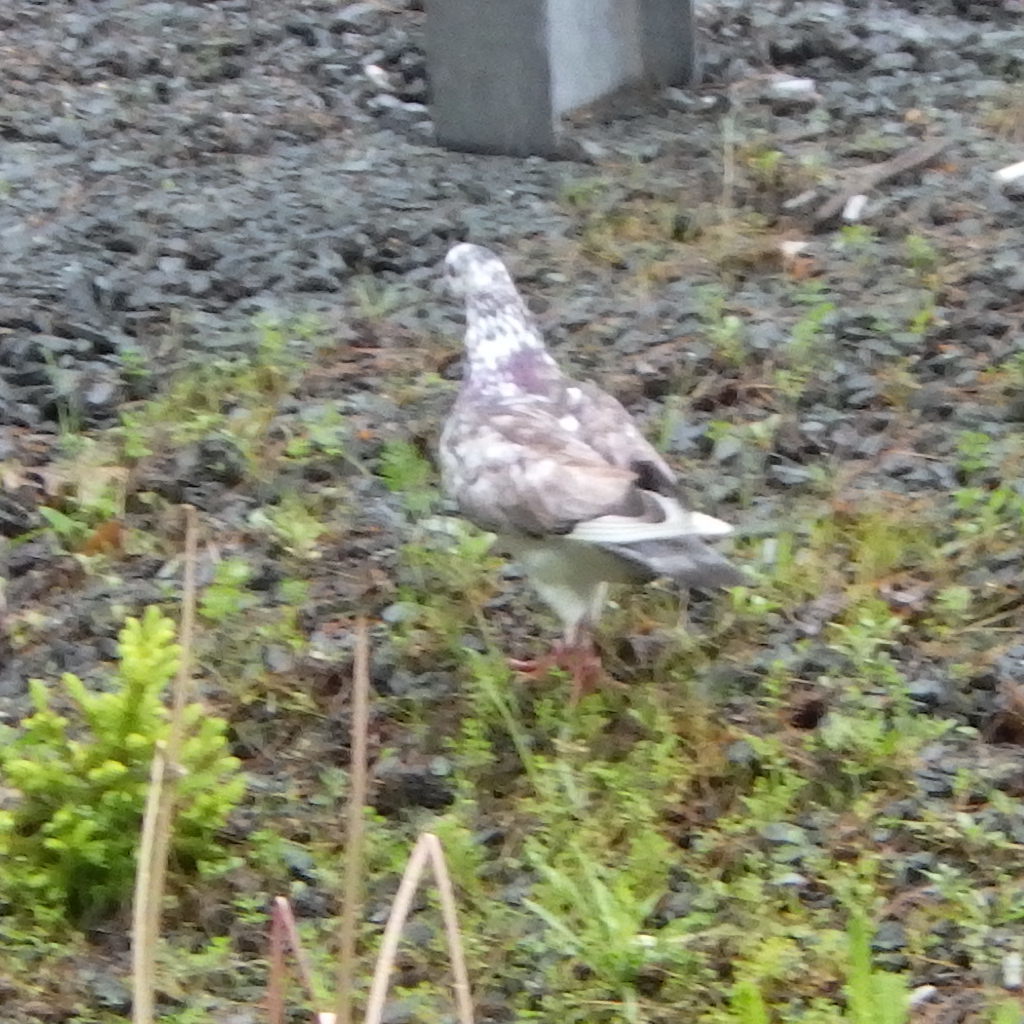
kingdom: Animalia
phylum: Chordata
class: Aves
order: Columbiformes
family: Columbidae
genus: Columba
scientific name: Columba livia
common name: Rock pigeon
